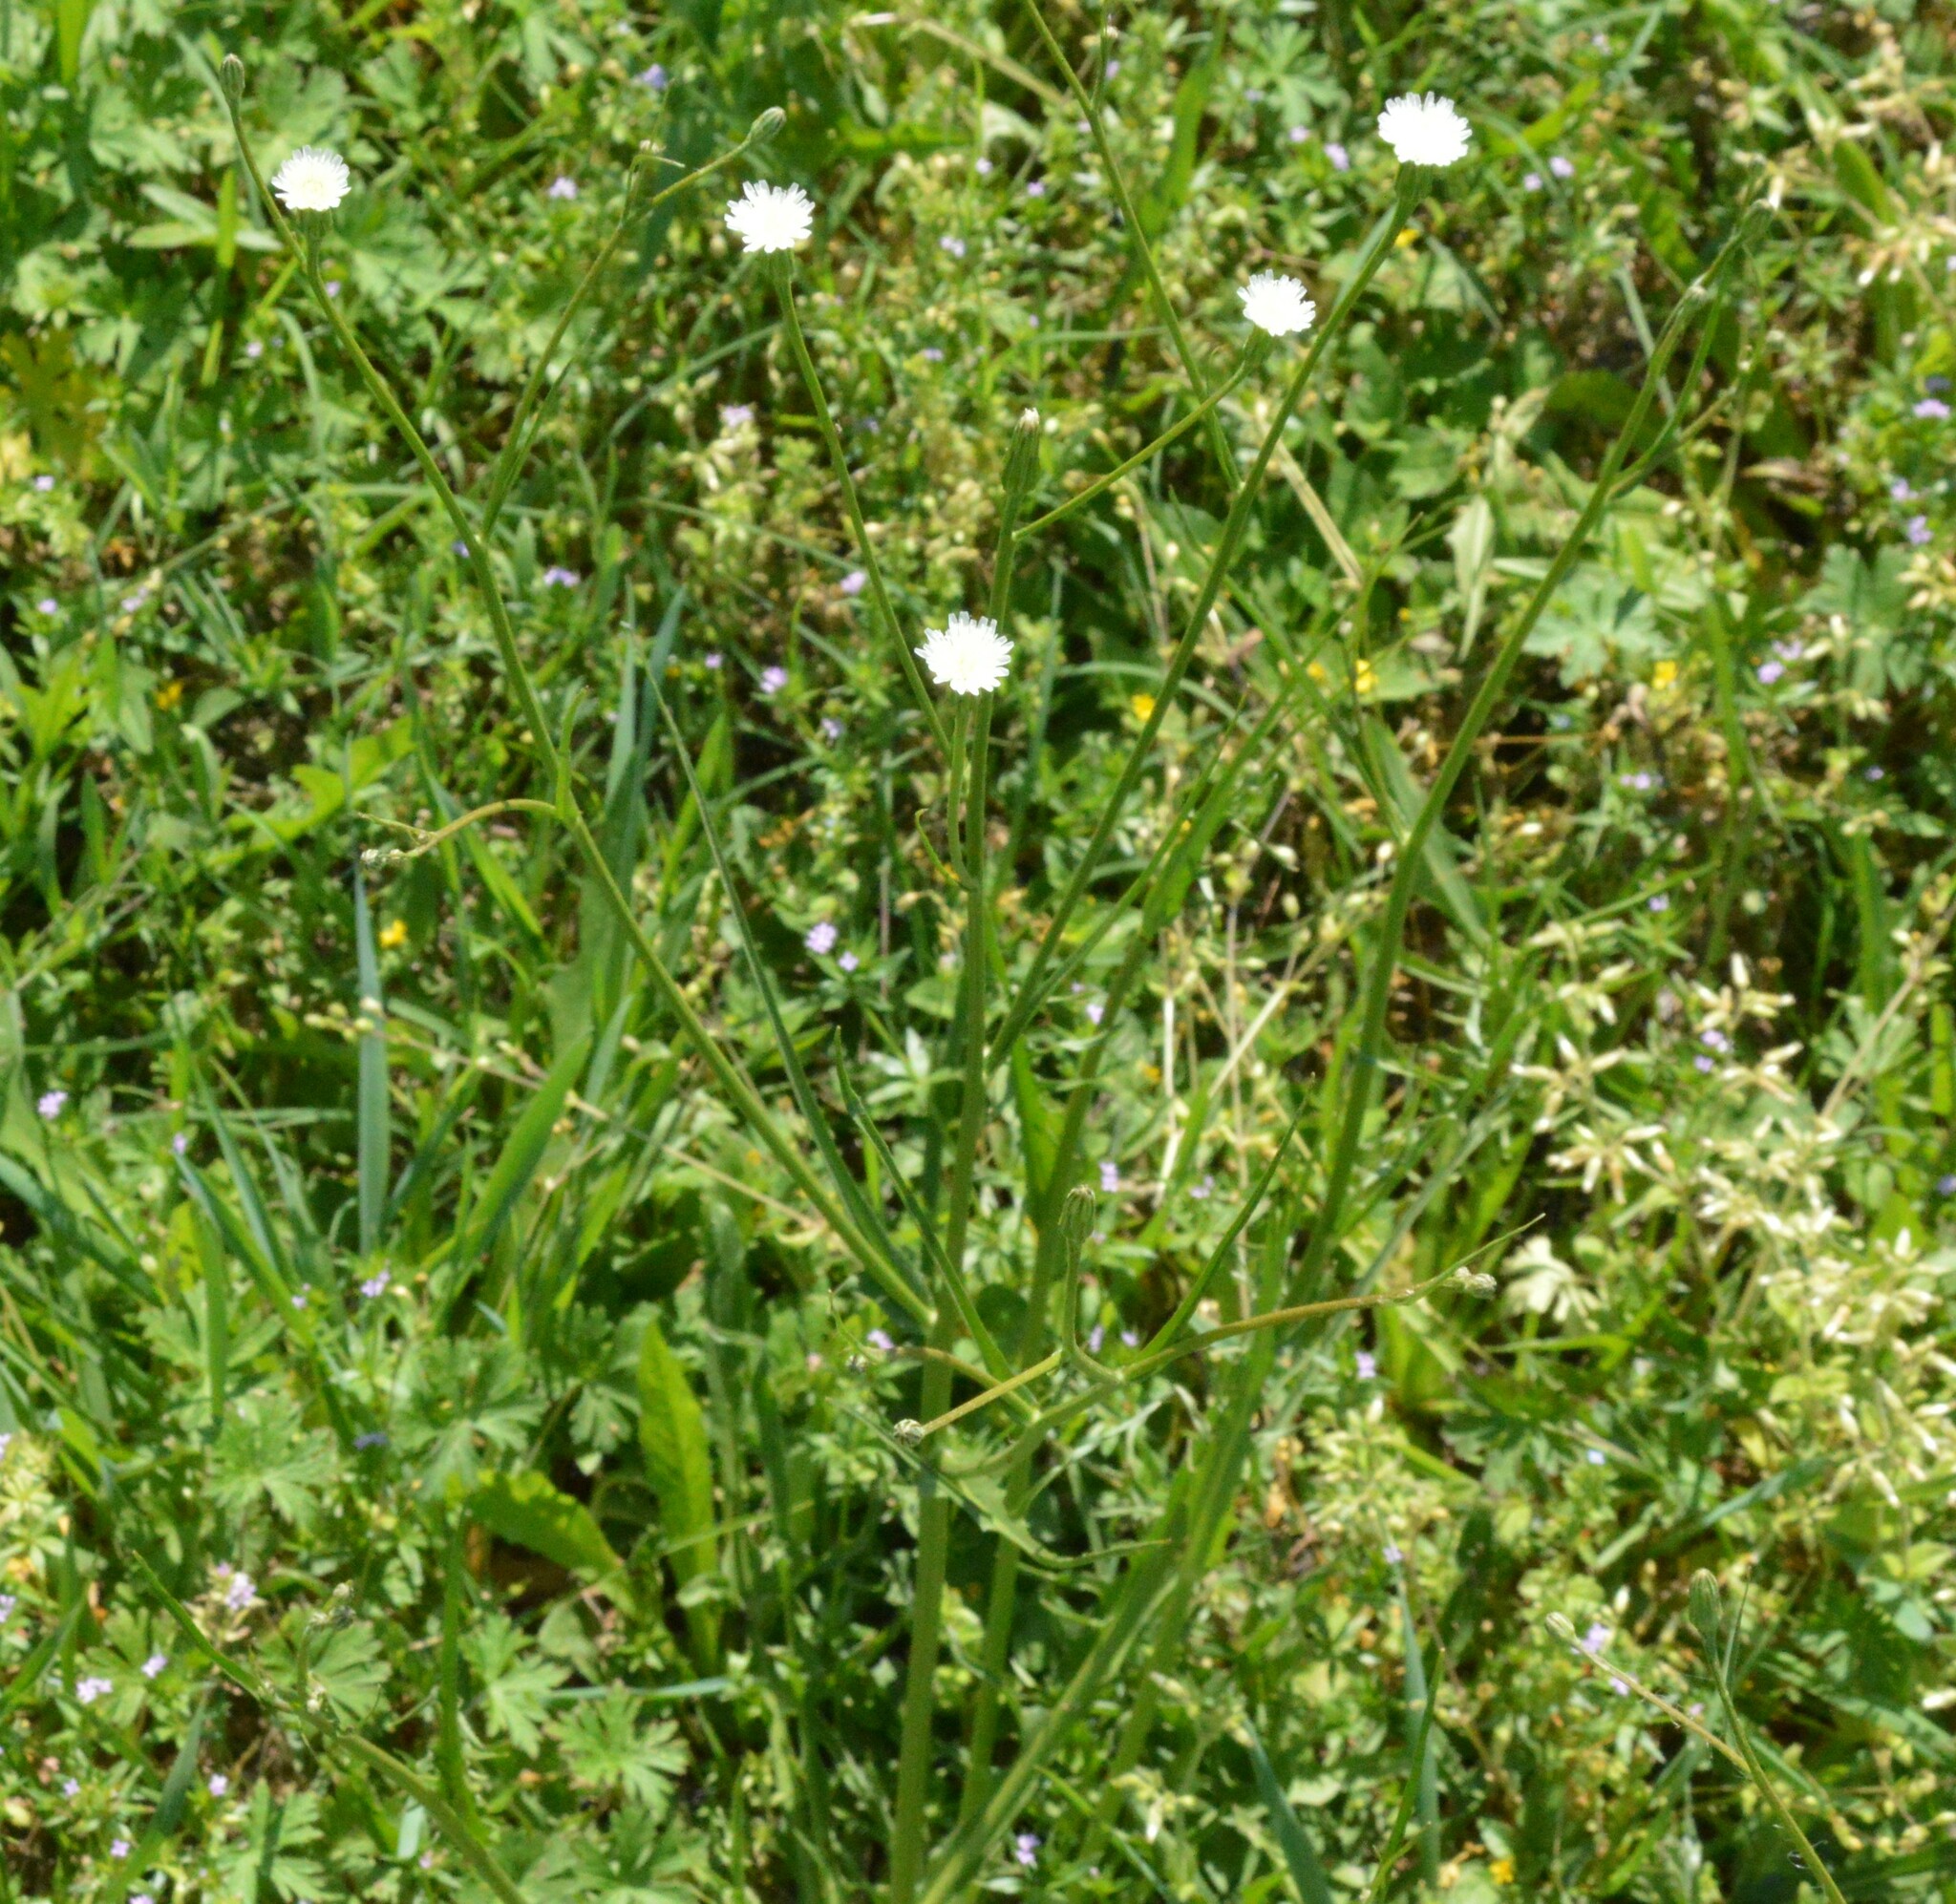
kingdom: Plantae
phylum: Tracheophyta
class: Magnoliopsida
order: Asterales
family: Asteraceae
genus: Hypochaeris
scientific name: Hypochaeris albiflora
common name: White flatweed
